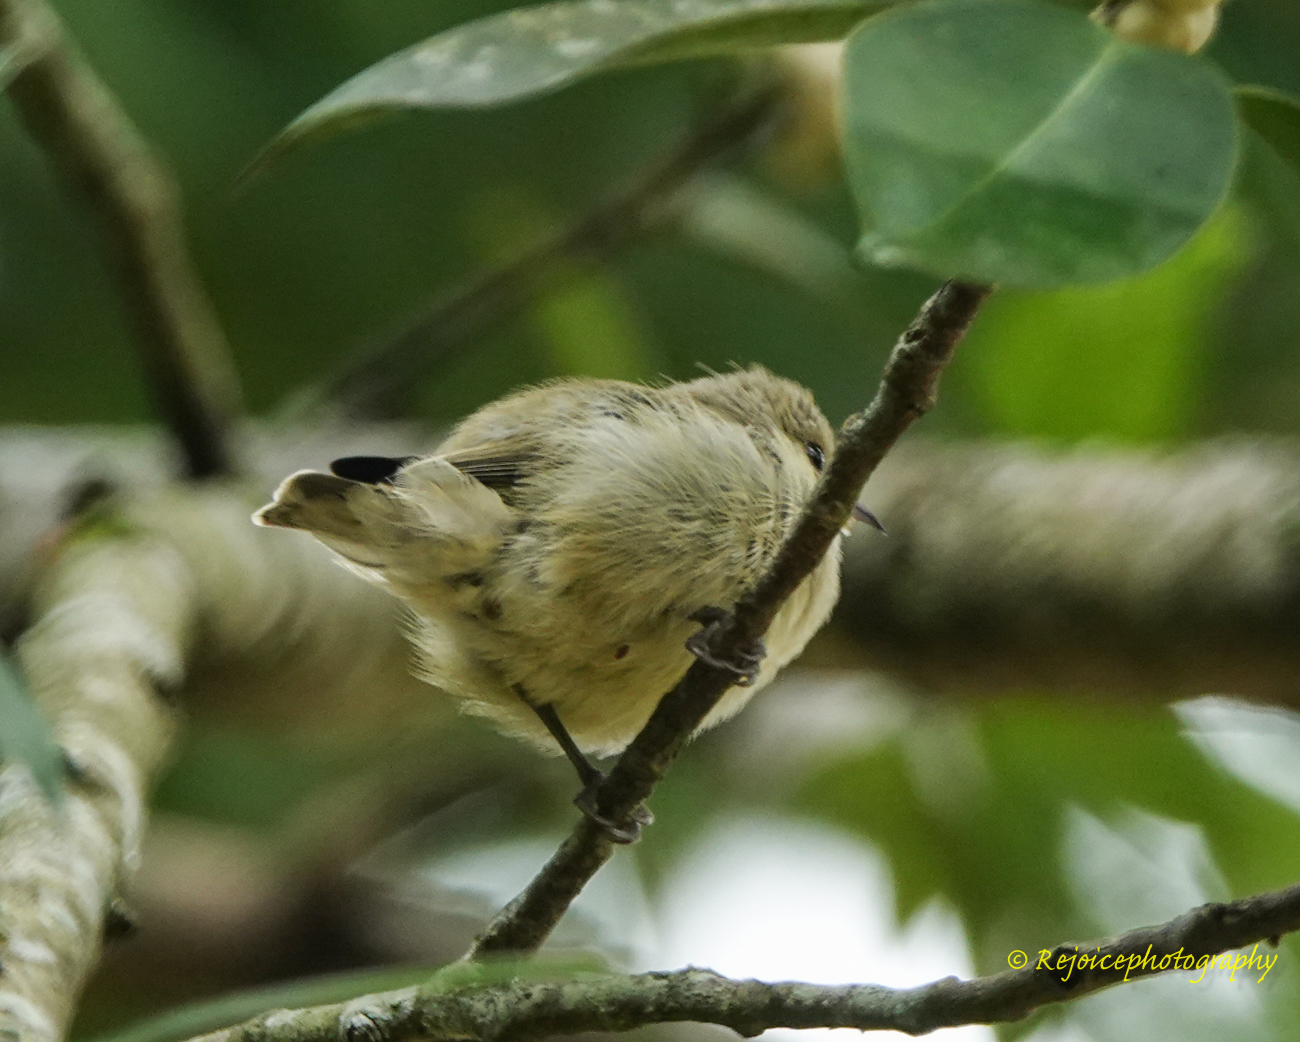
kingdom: Animalia
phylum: Chordata
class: Aves
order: Passeriformes
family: Dicaeidae
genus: Dicaeum
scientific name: Dicaeum minullum
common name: Plain flowerpecker
